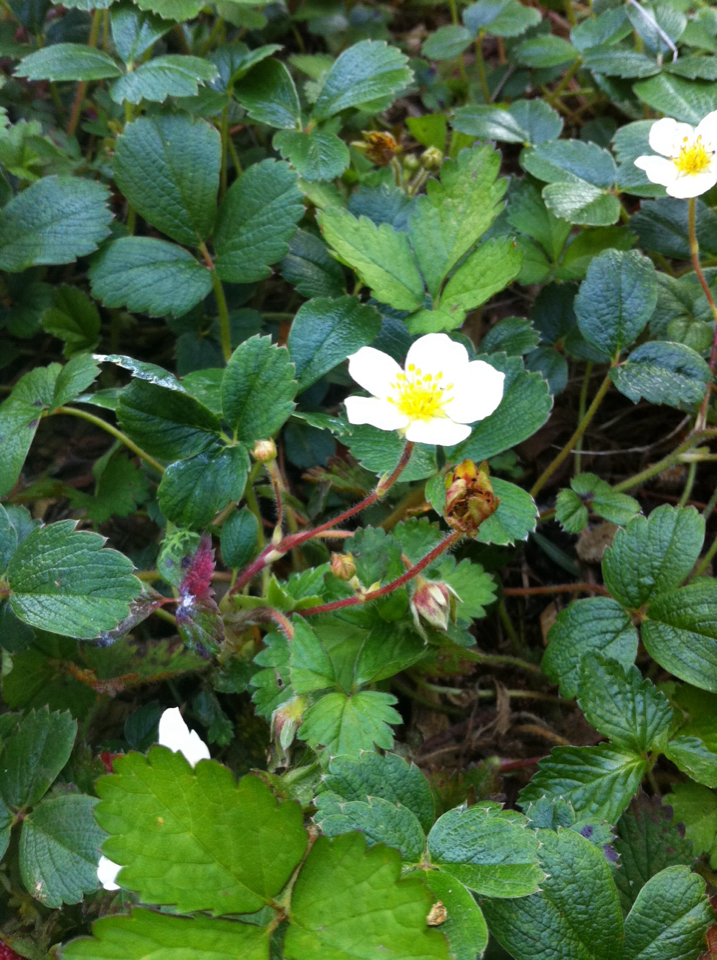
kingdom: Plantae
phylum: Tracheophyta
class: Magnoliopsida
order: Rosales
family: Rosaceae
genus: Fragaria
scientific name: Fragaria chiloensis
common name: Beach strawberry
